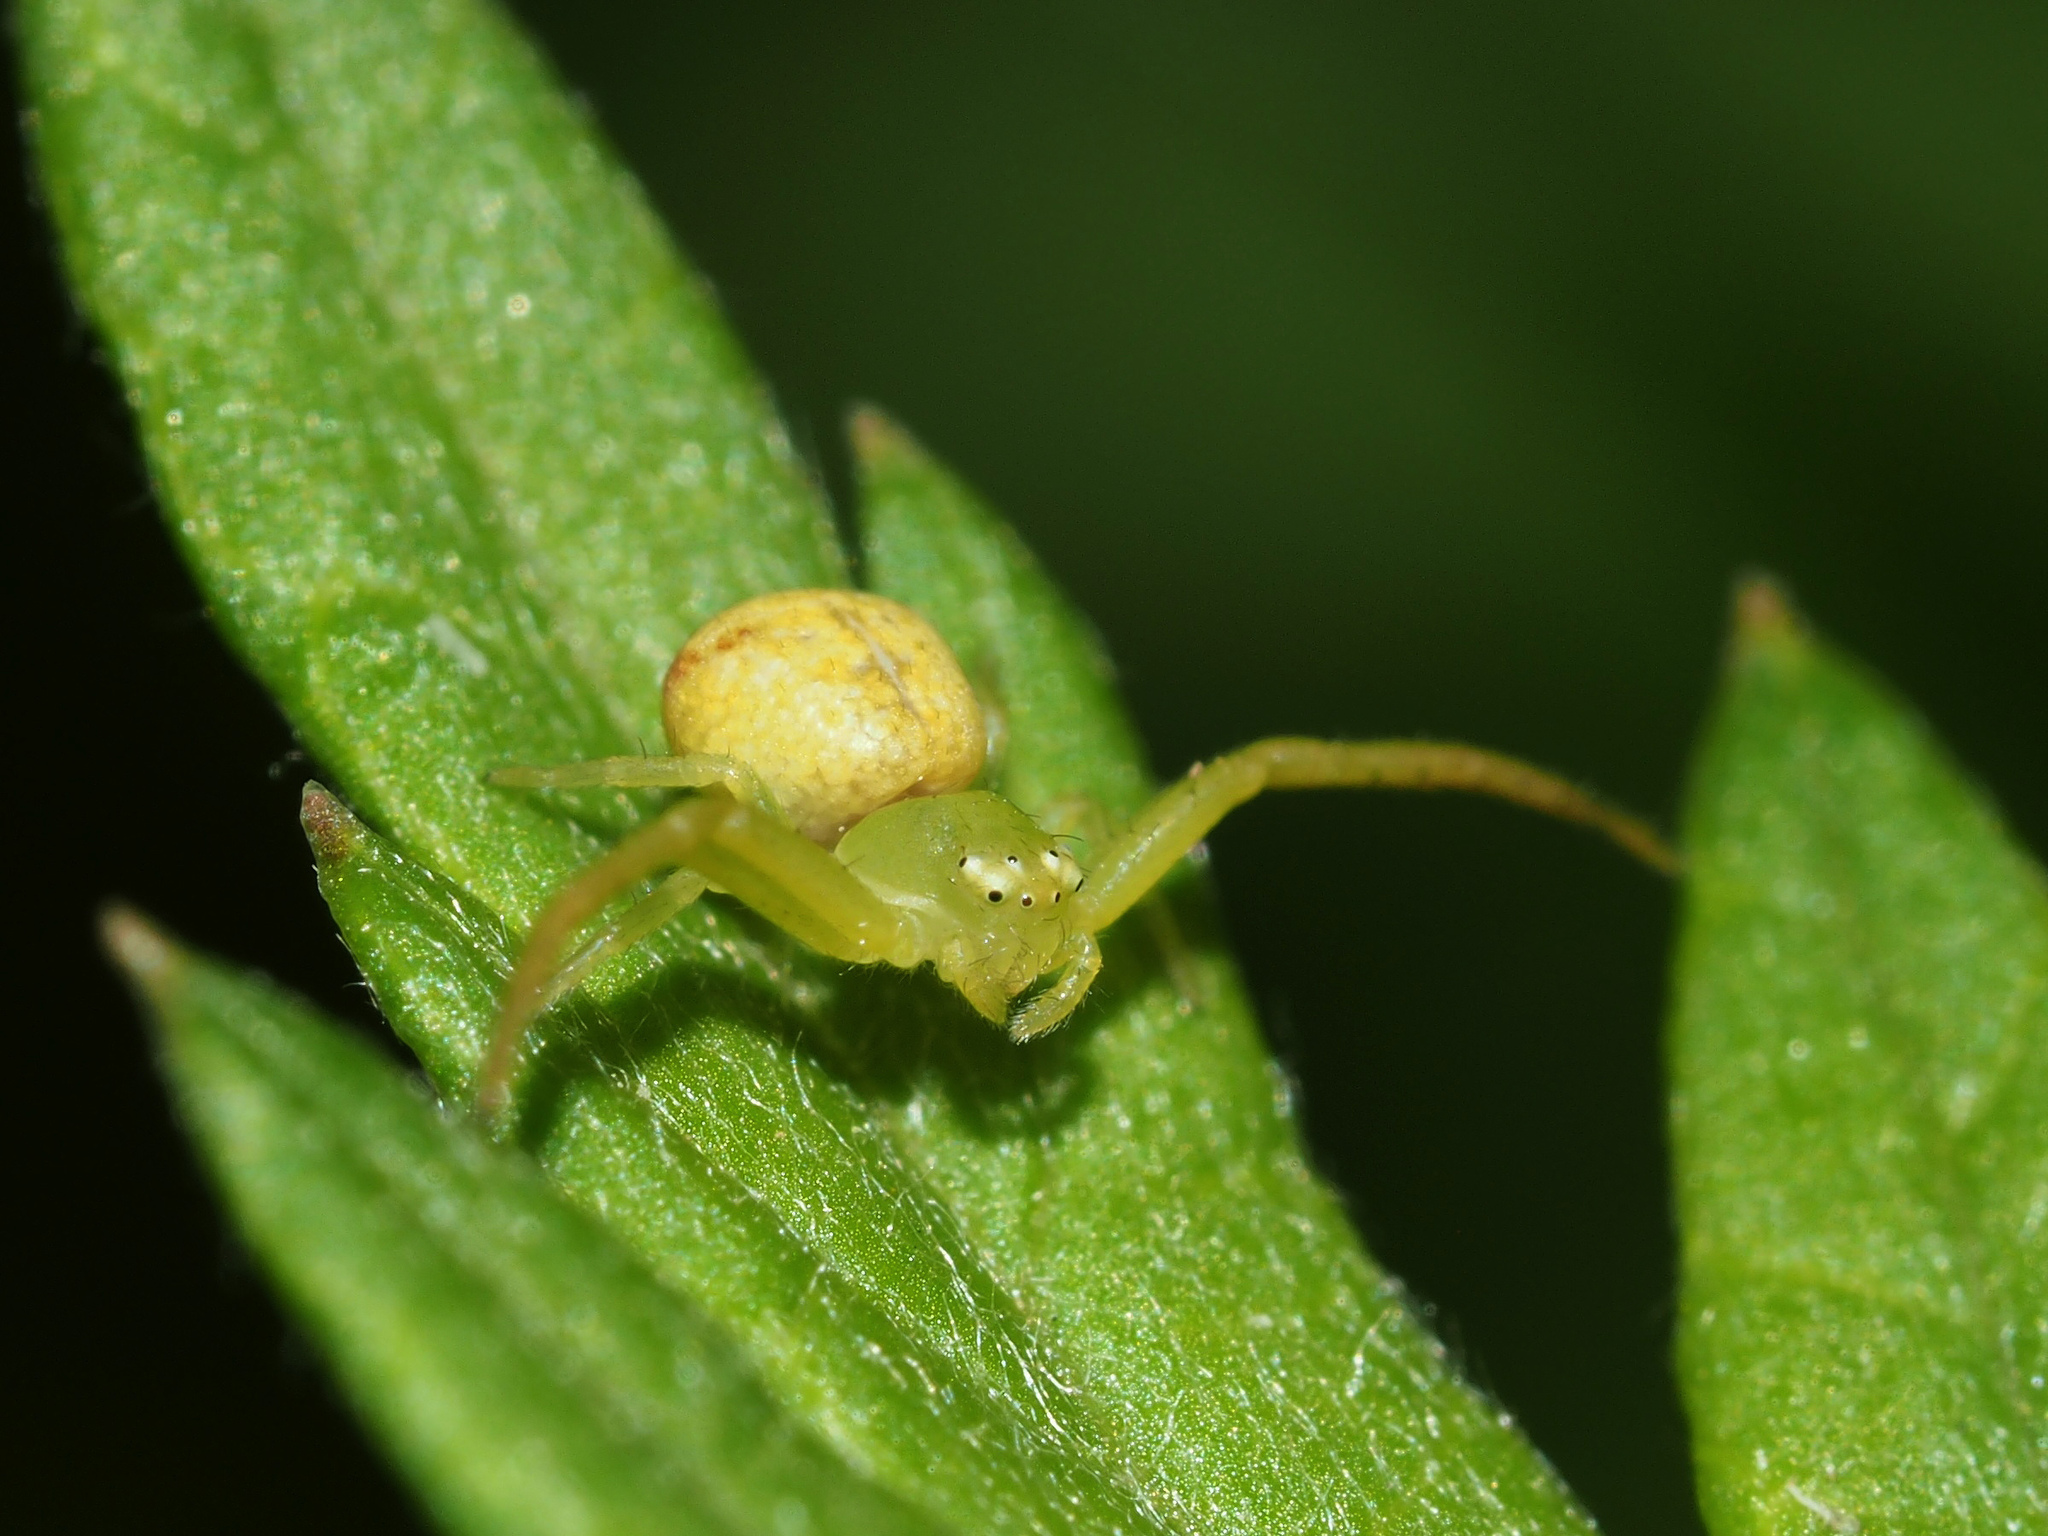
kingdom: Animalia
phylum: Arthropoda
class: Arachnida
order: Araneae
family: Thomisidae
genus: Ebrechtella
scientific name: Ebrechtella tricuspidata
